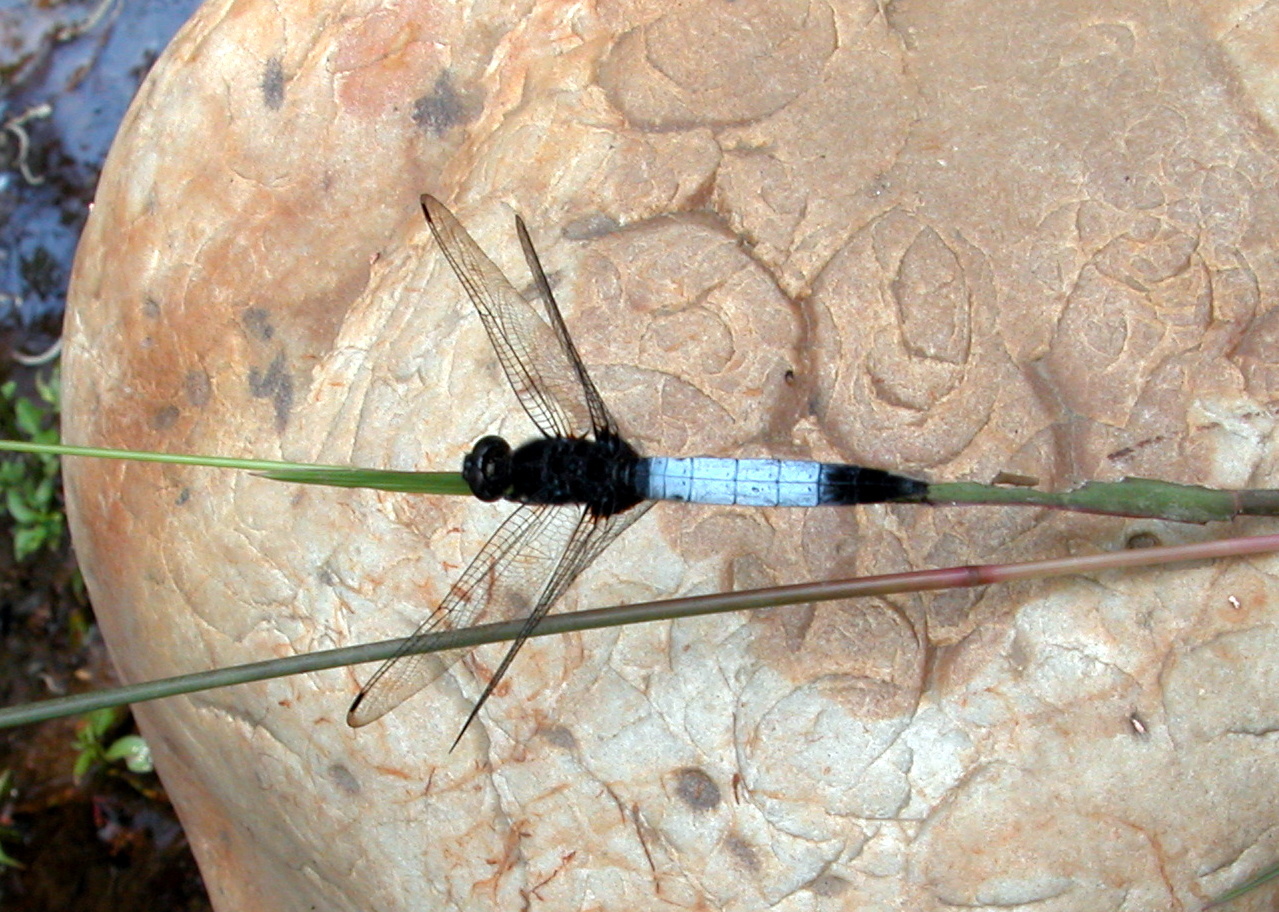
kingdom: Animalia
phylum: Arthropoda
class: Insecta
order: Odonata
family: Libellulidae
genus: Orthetrum
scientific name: Orthetrum triangulare
